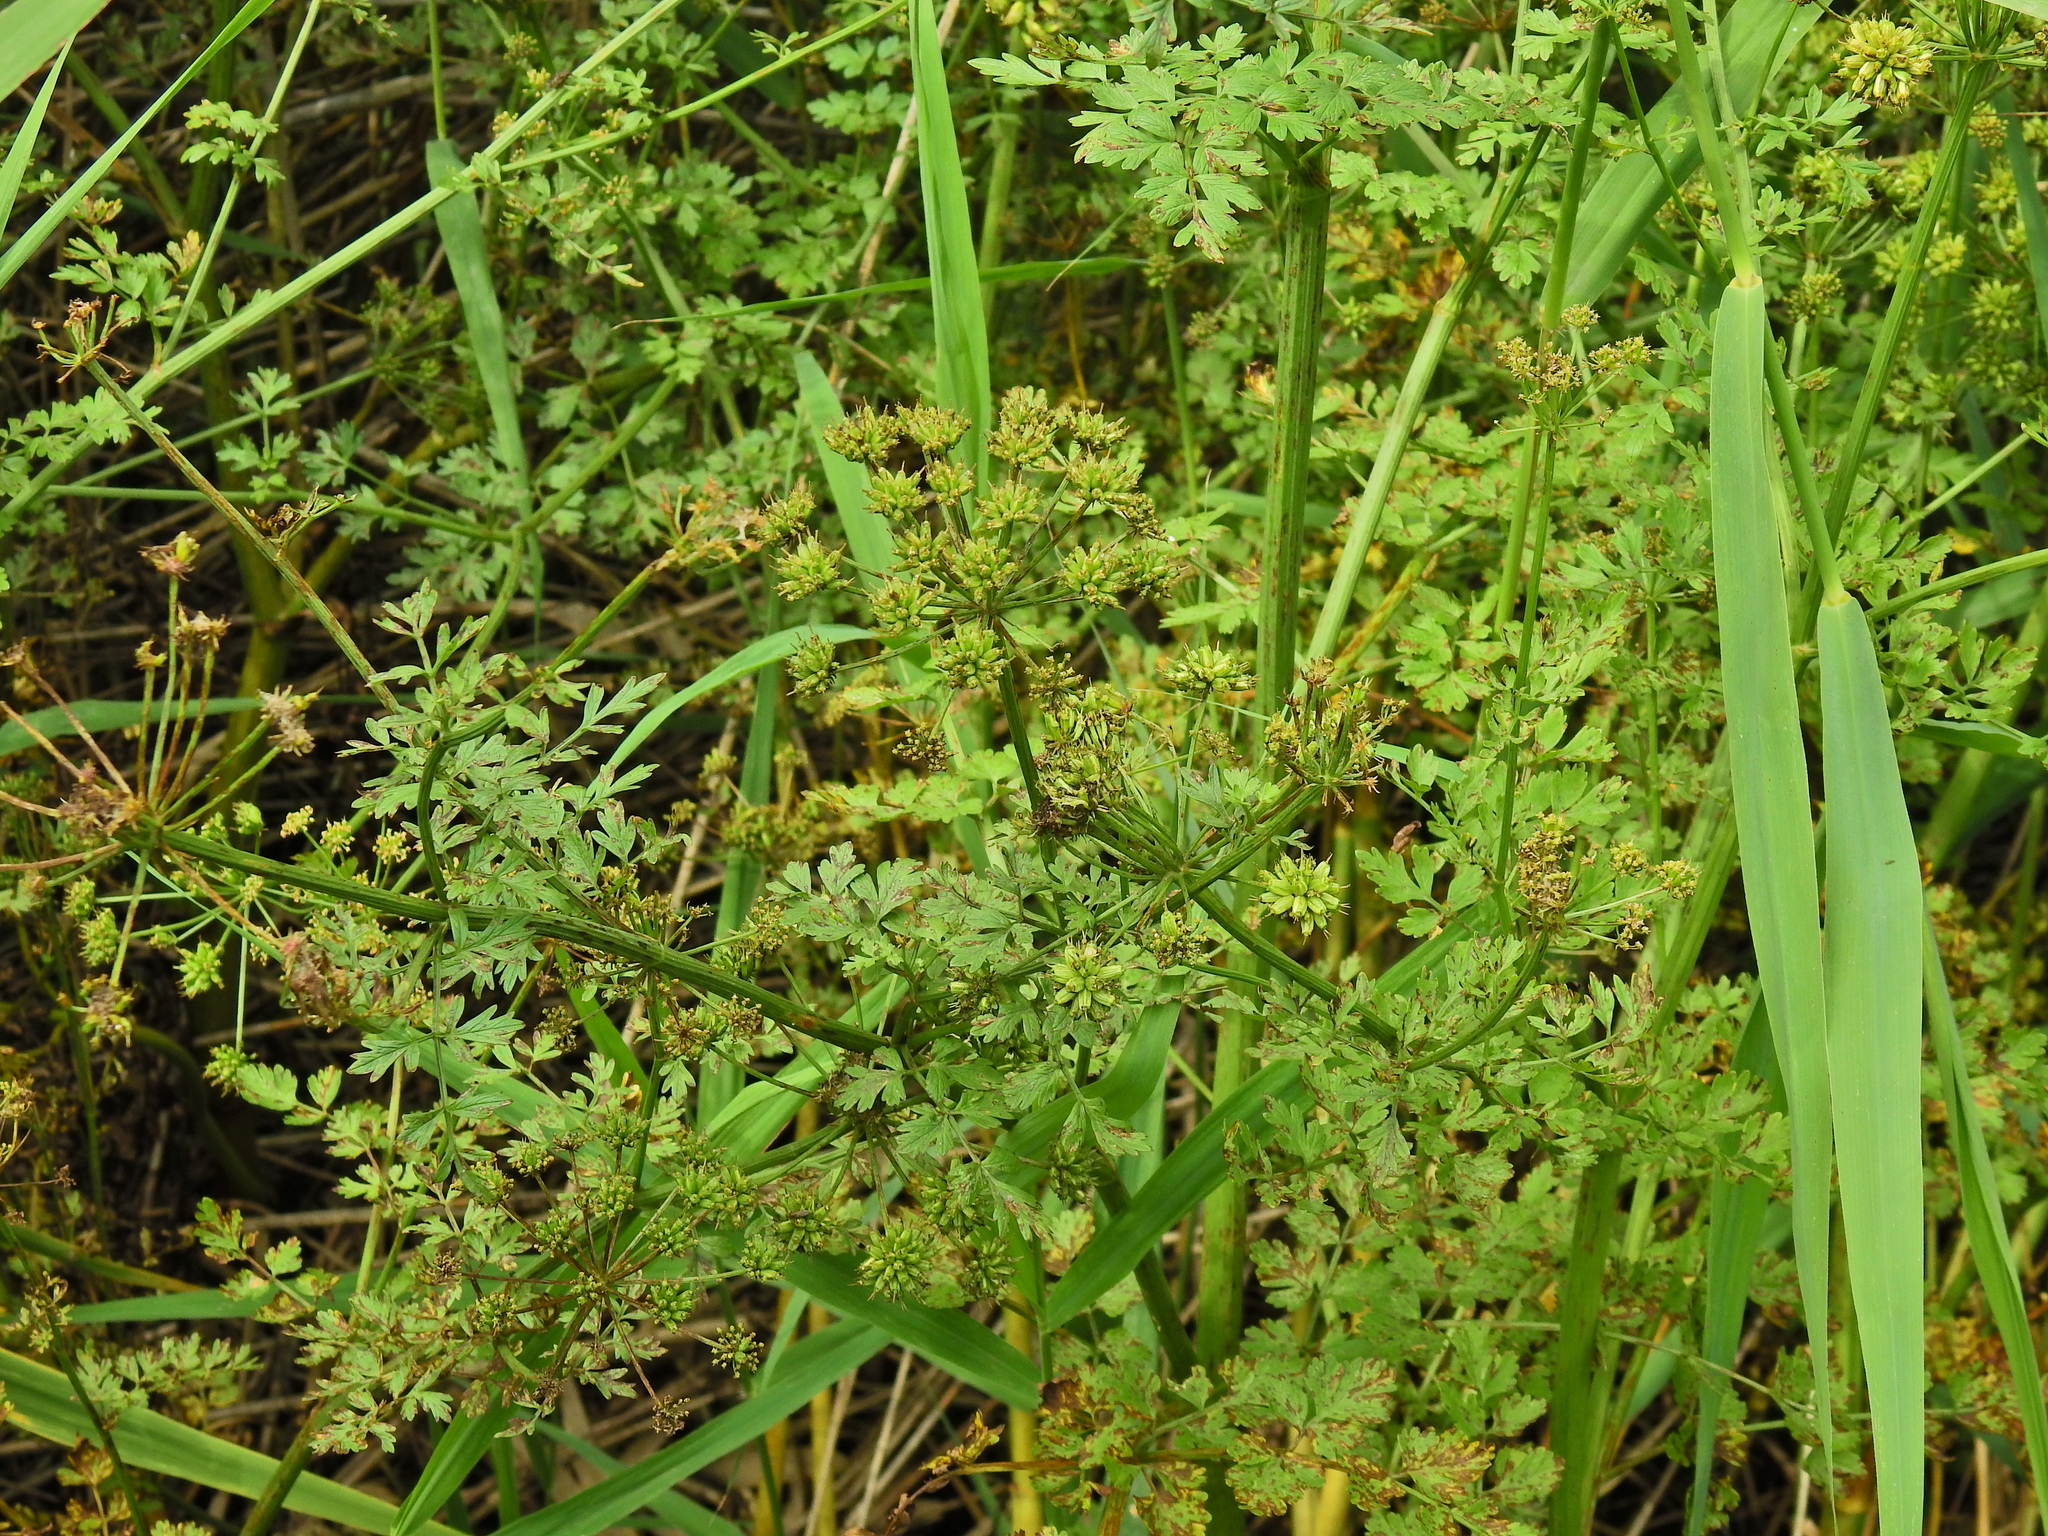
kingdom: Plantae
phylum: Tracheophyta
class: Magnoliopsida
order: Apiales
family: Apiaceae
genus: Oenanthe
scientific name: Oenanthe crocata
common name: Hemlock water-dropwort
